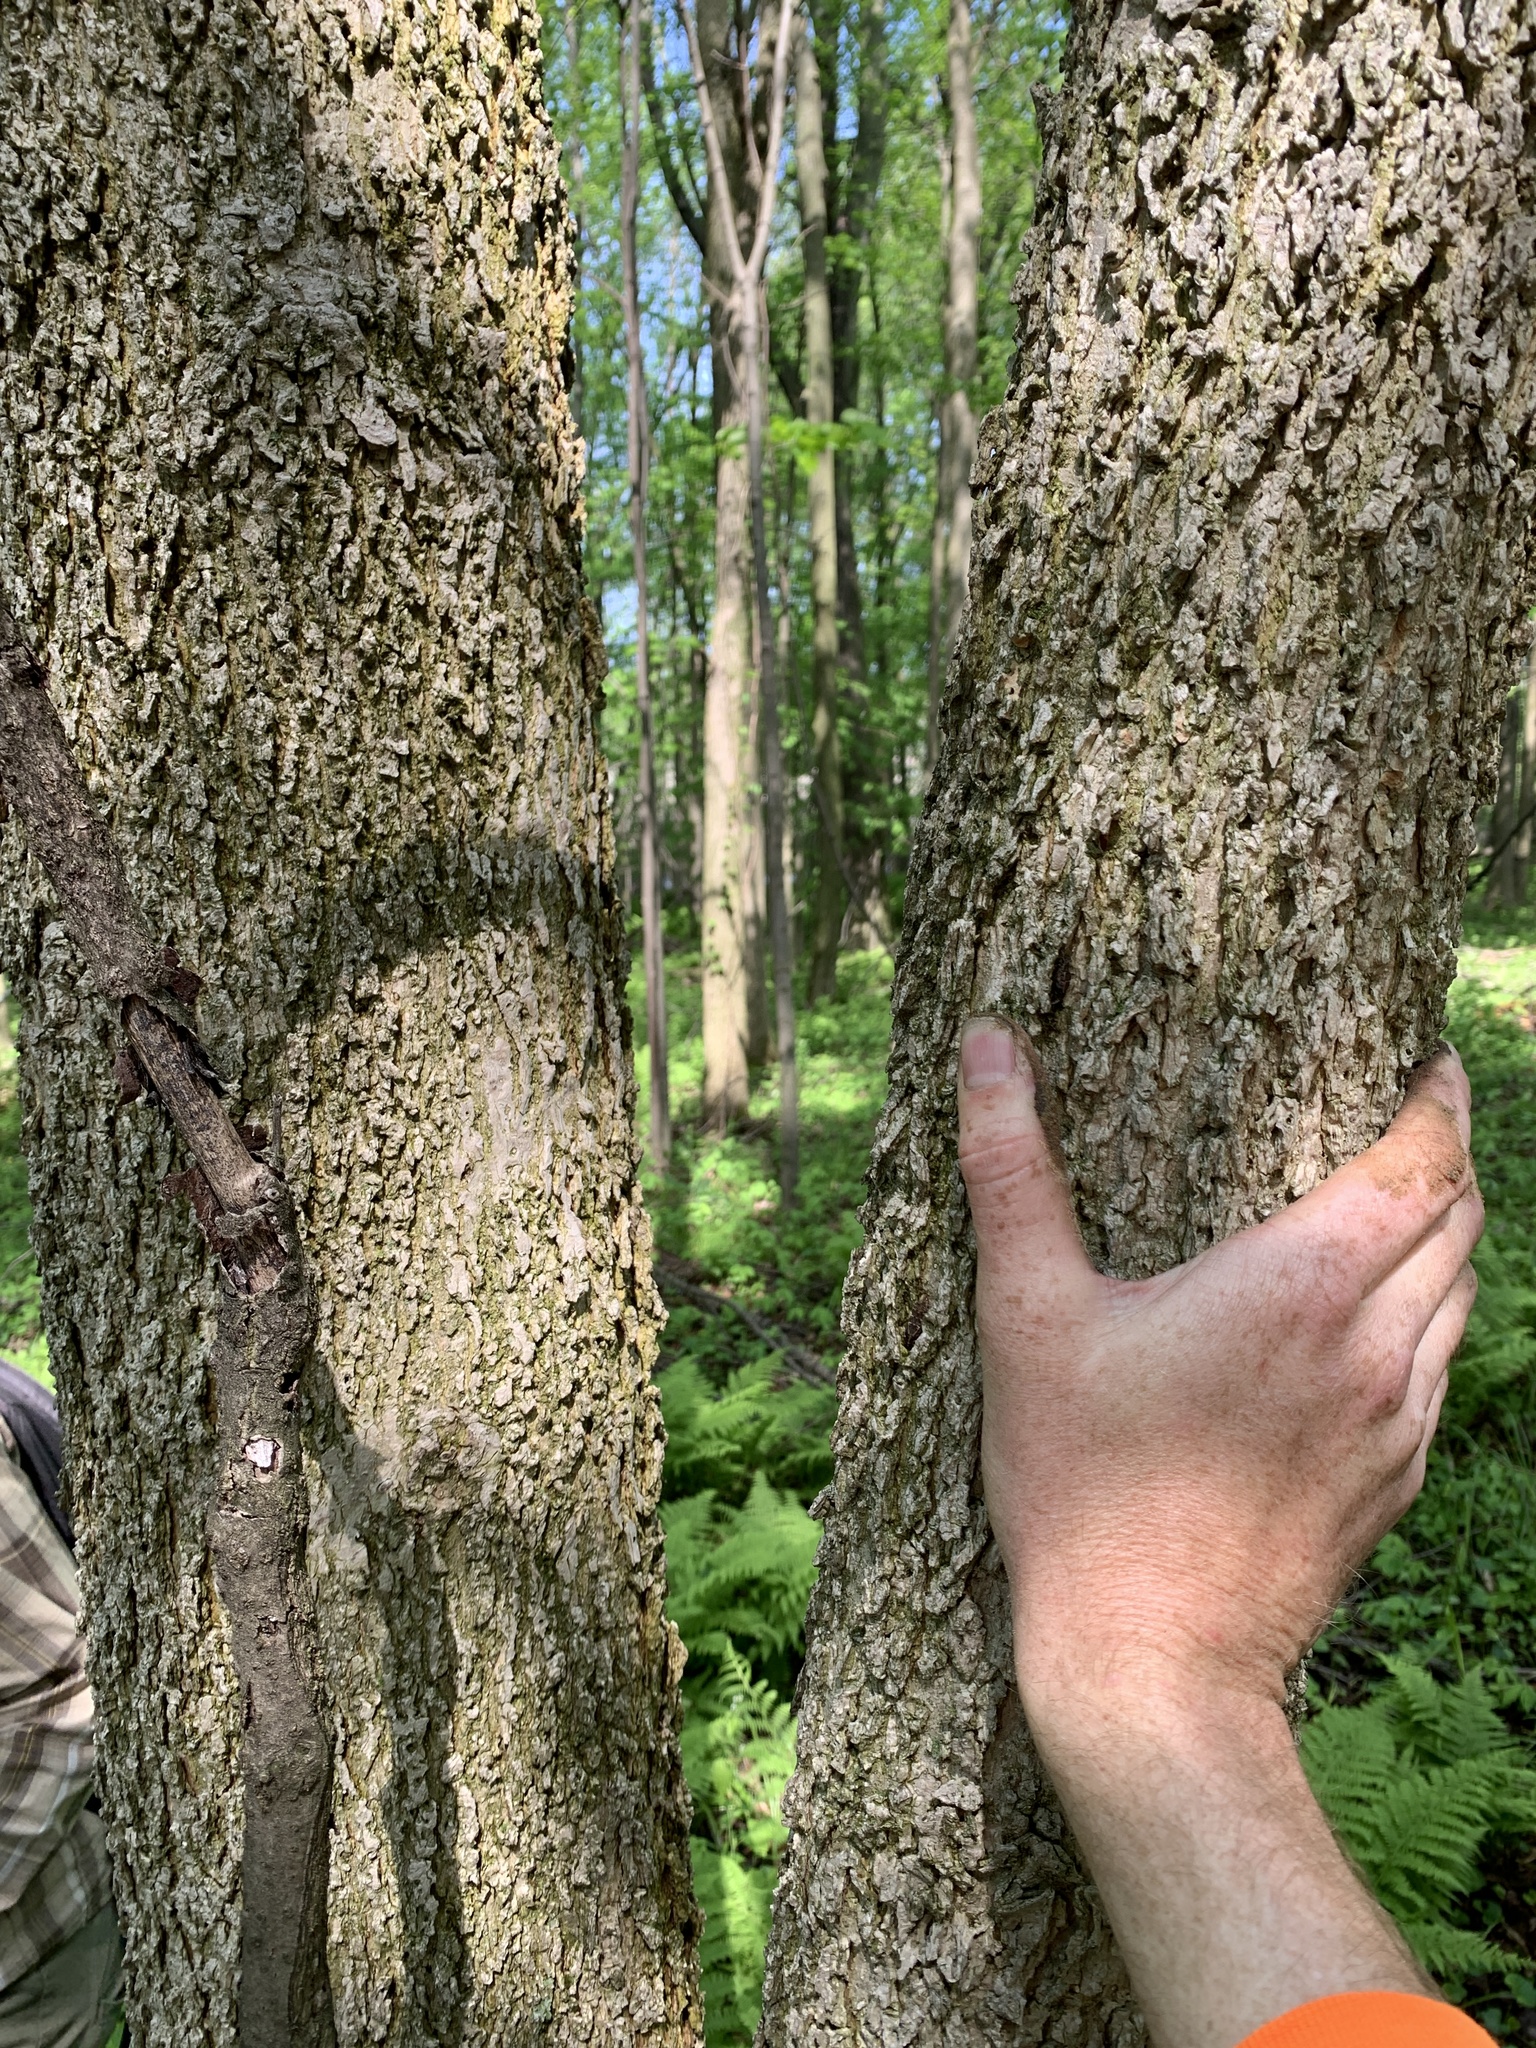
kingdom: Plantae
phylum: Tracheophyta
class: Magnoliopsida
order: Lamiales
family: Oleaceae
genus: Fraxinus
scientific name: Fraxinus nigra
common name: Black ash
